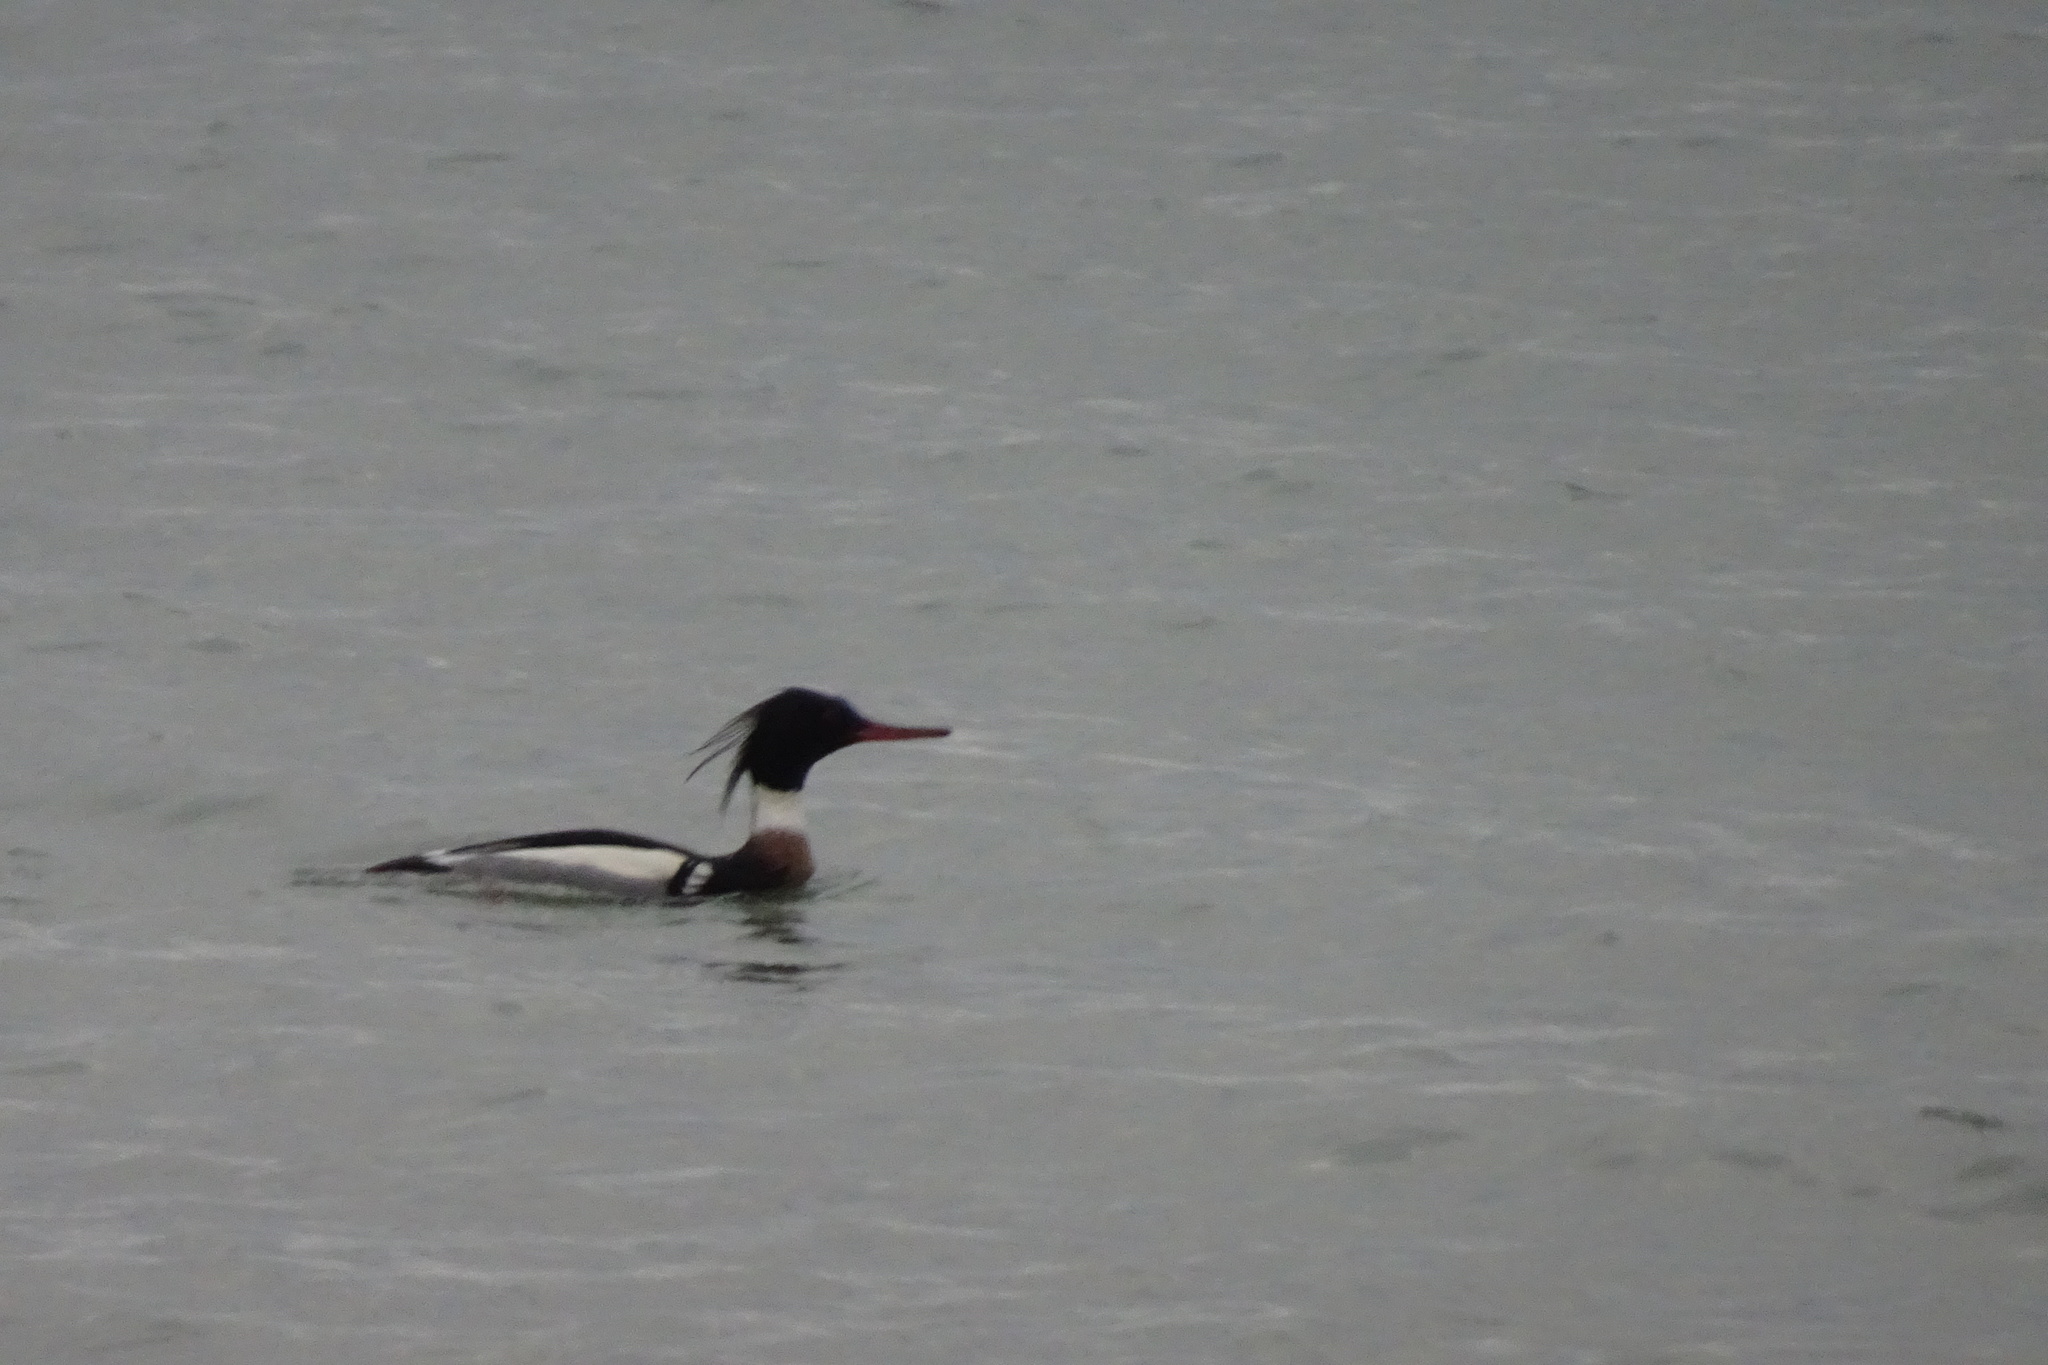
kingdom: Animalia
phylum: Chordata
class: Aves
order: Anseriformes
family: Anatidae
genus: Mergus
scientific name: Mergus serrator
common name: Red-breasted merganser
